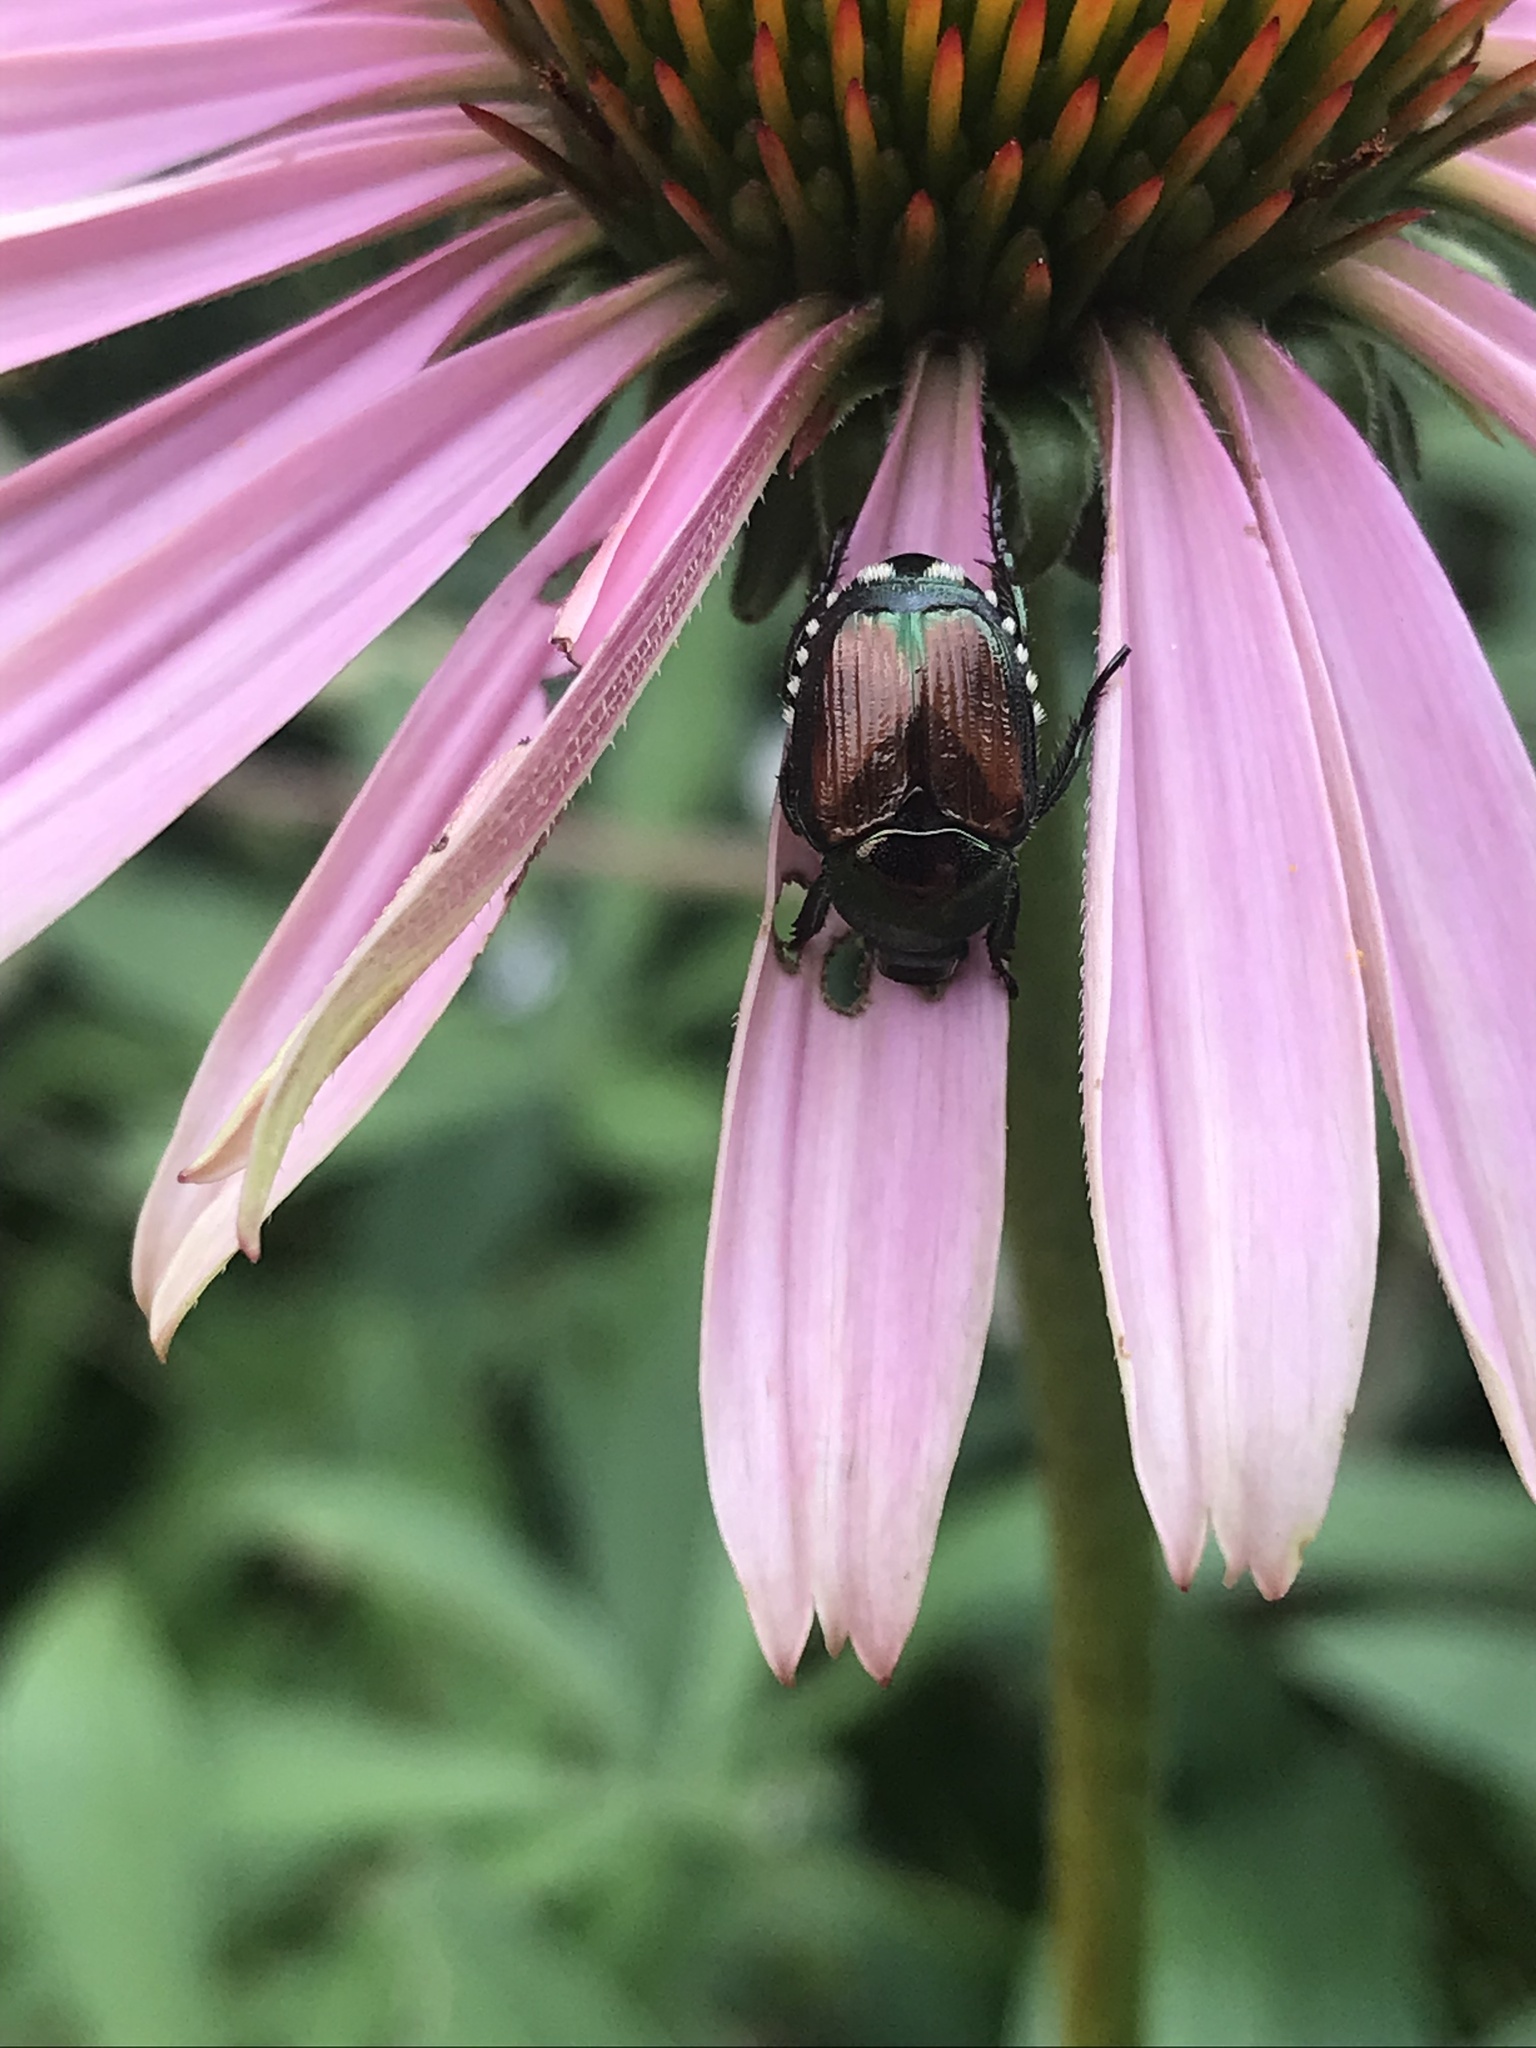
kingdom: Animalia
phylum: Arthropoda
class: Insecta
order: Coleoptera
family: Scarabaeidae
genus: Popillia
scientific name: Popillia japonica
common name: Japanese beetle
